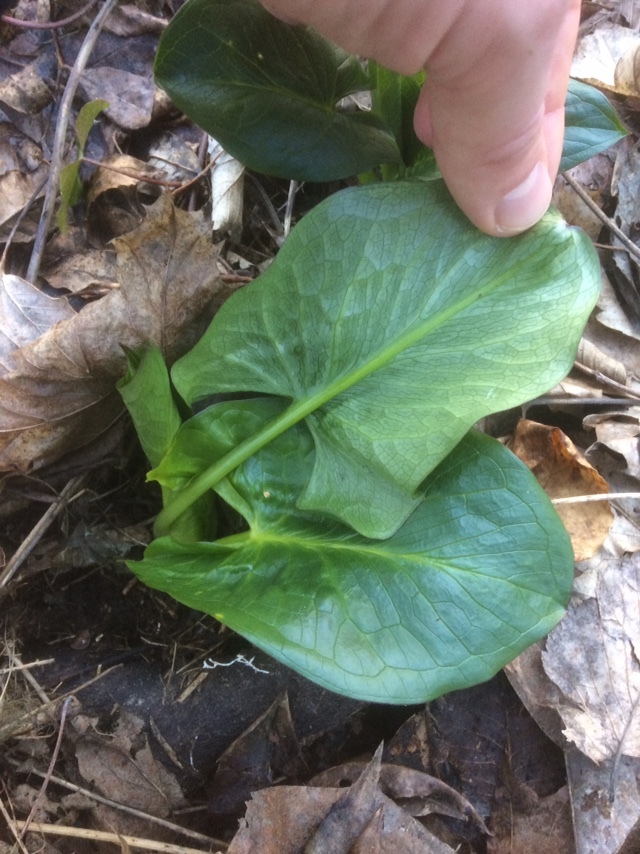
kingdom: Plantae
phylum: Tracheophyta
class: Liliopsida
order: Alismatales
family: Araceae
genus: Arum
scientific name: Arum cylindraceum
